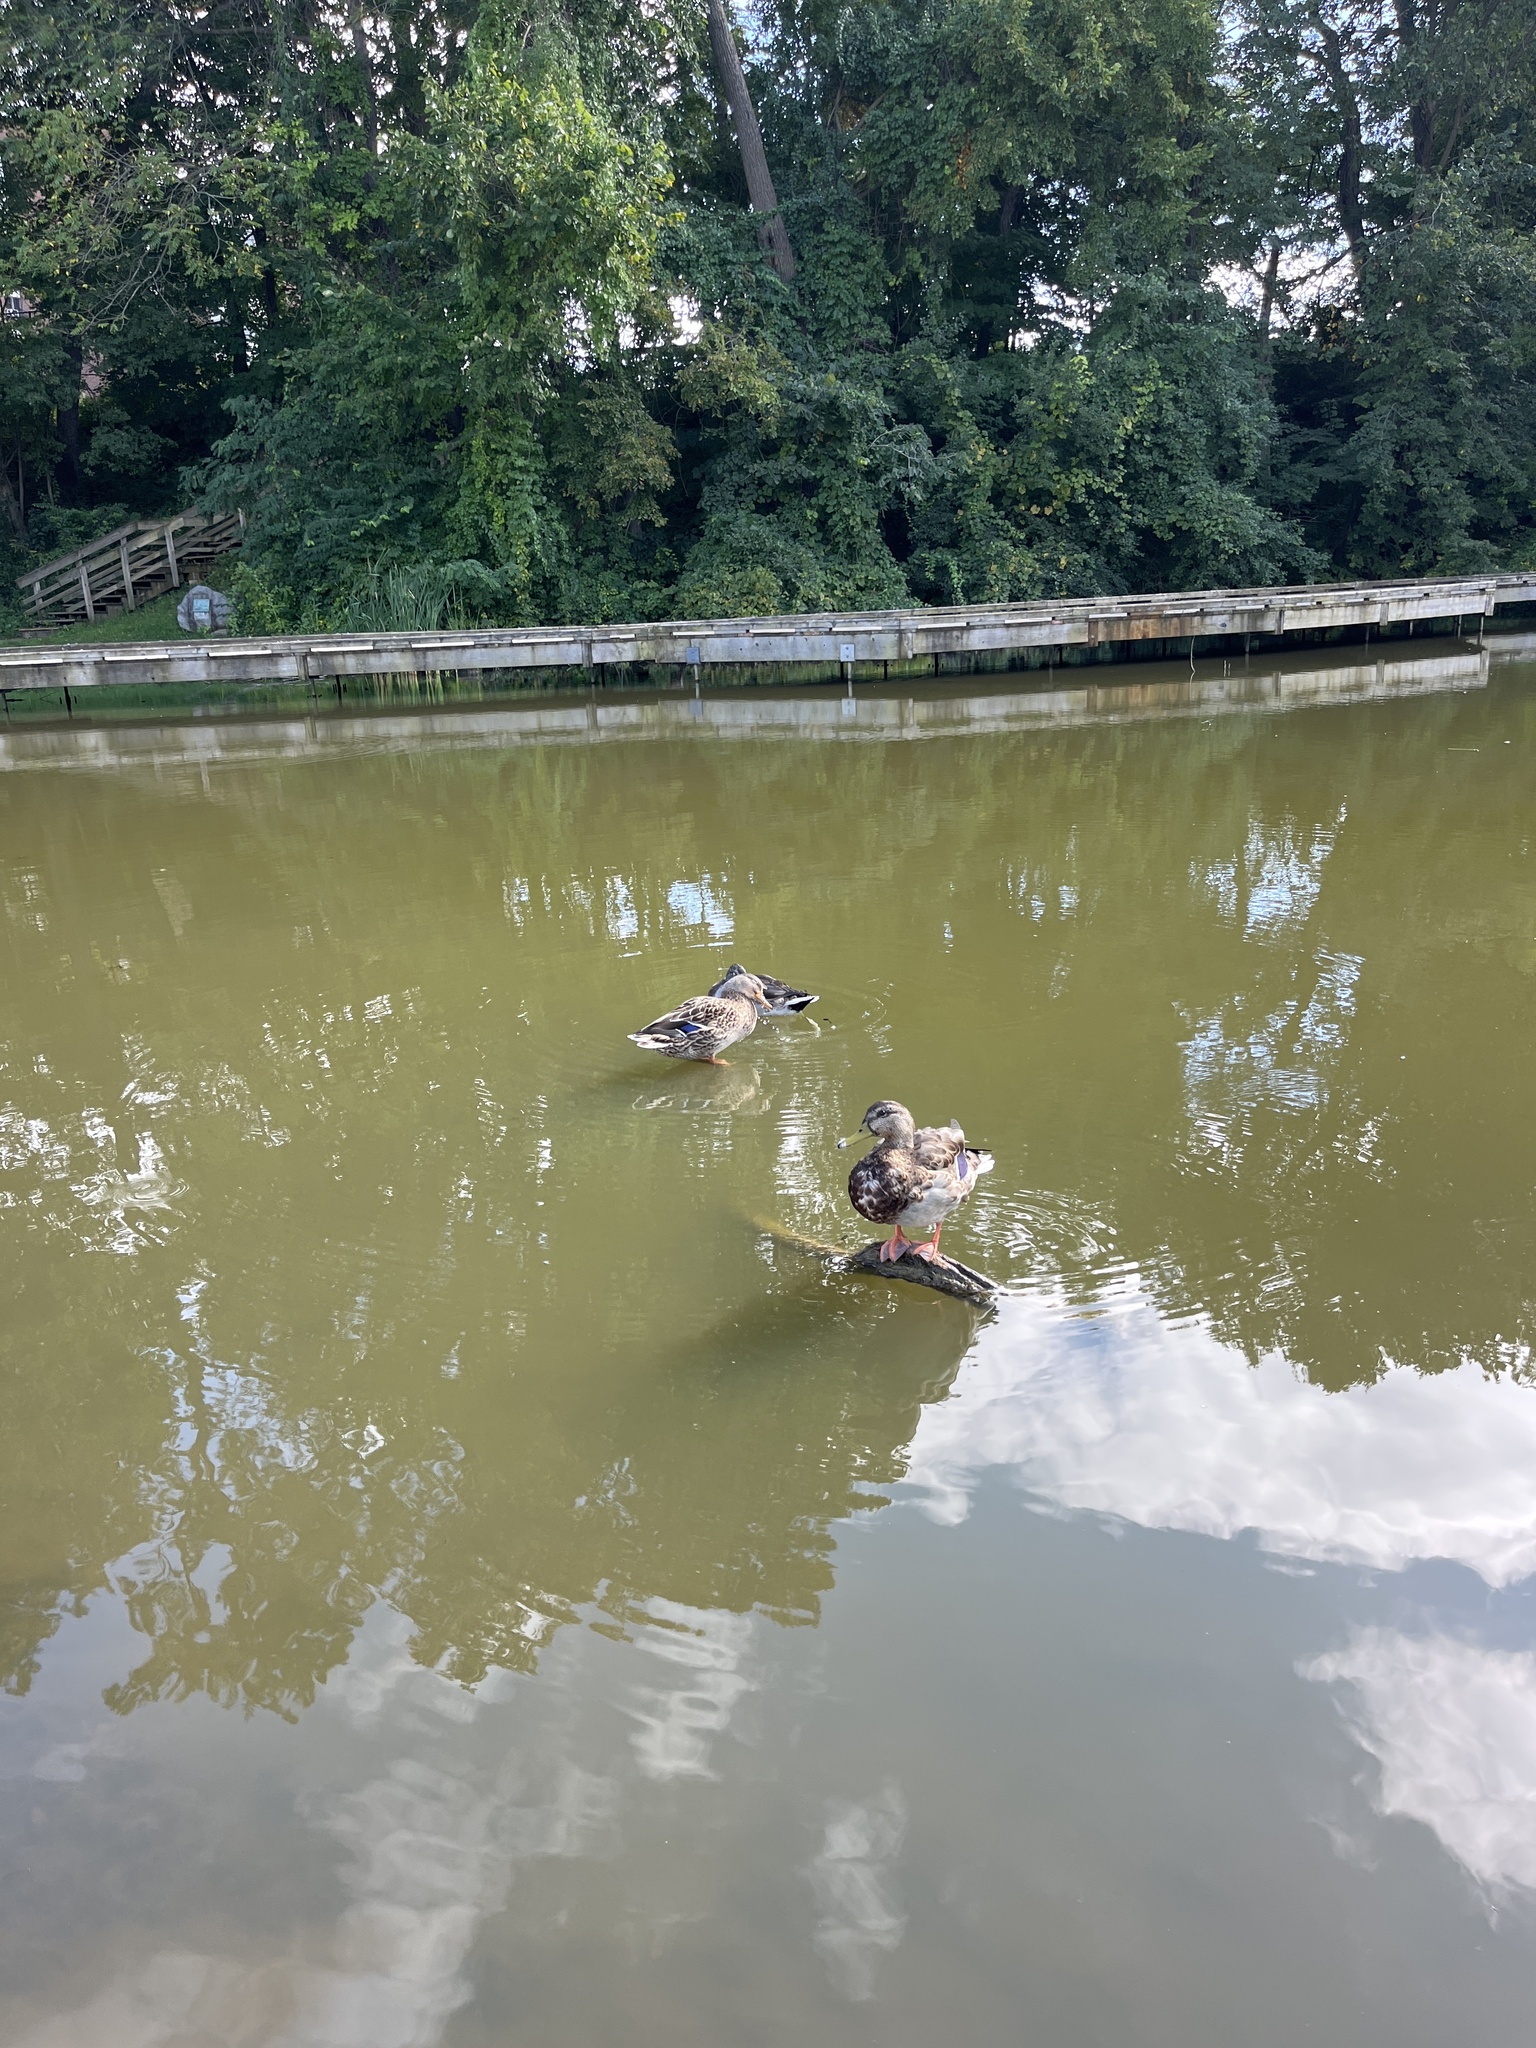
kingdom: Animalia
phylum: Chordata
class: Aves
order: Anseriformes
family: Anatidae
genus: Anas
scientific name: Anas platyrhynchos
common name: Mallard
